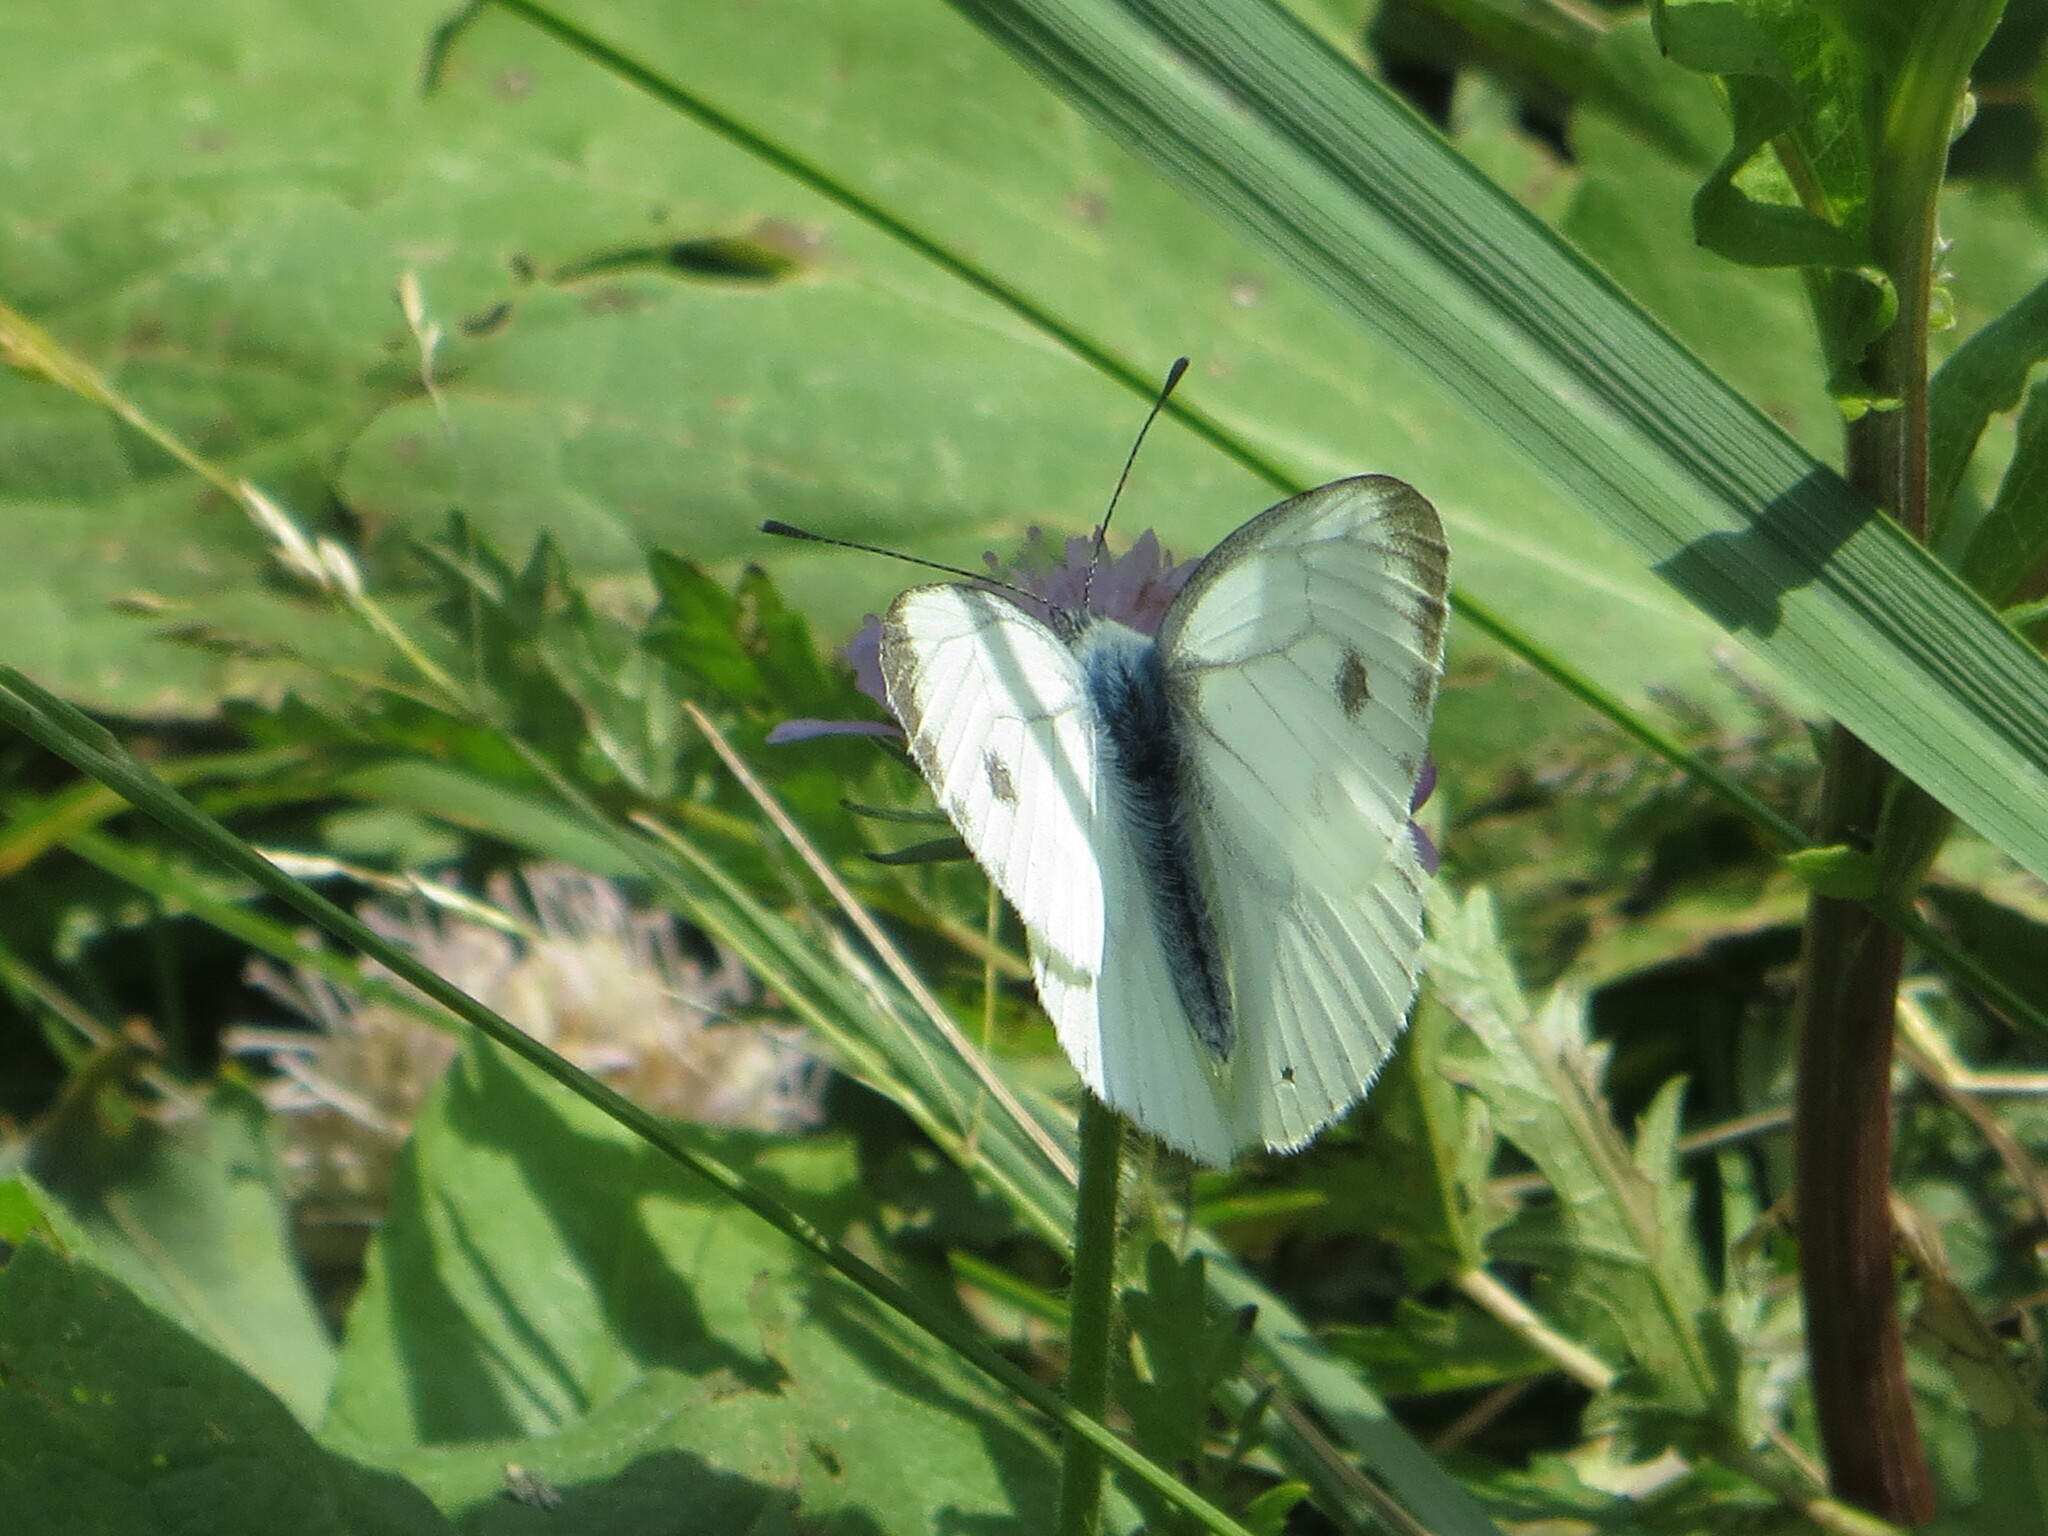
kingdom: Animalia
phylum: Arthropoda
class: Insecta
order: Lepidoptera
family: Pieridae
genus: Pieris
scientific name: Pieris napi
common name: Green-veined white
